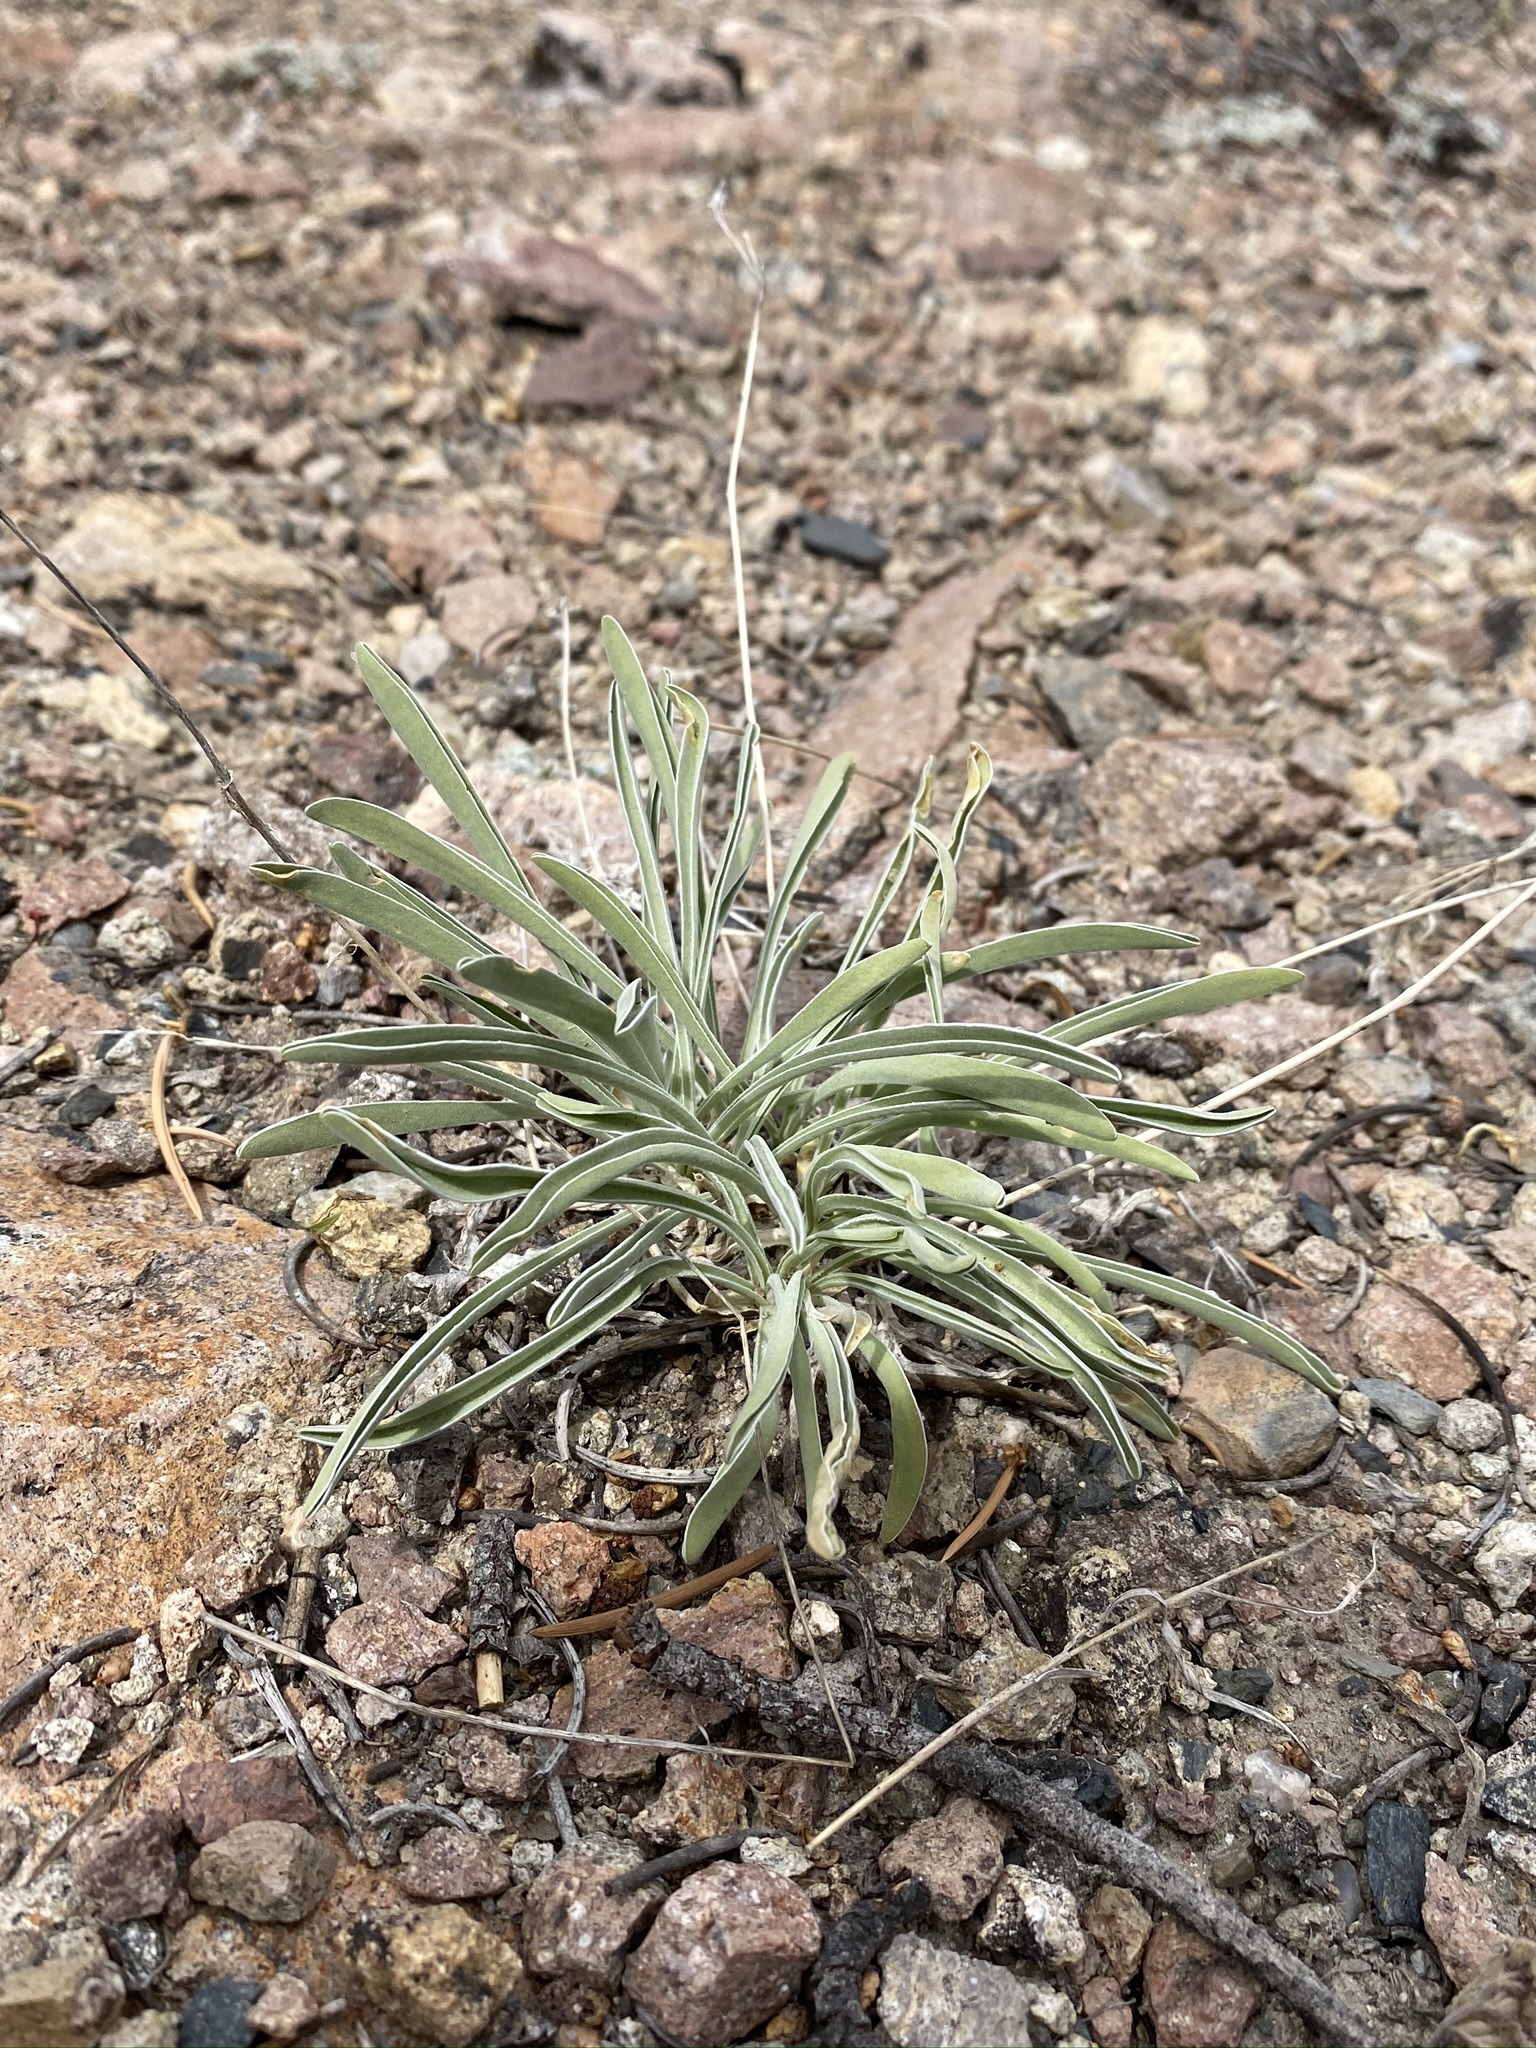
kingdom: Plantae
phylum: Tracheophyta
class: Magnoliopsida
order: Gentianales
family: Gentianaceae
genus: Frasera
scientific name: Frasera albicaulis
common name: Cusick's frasera
